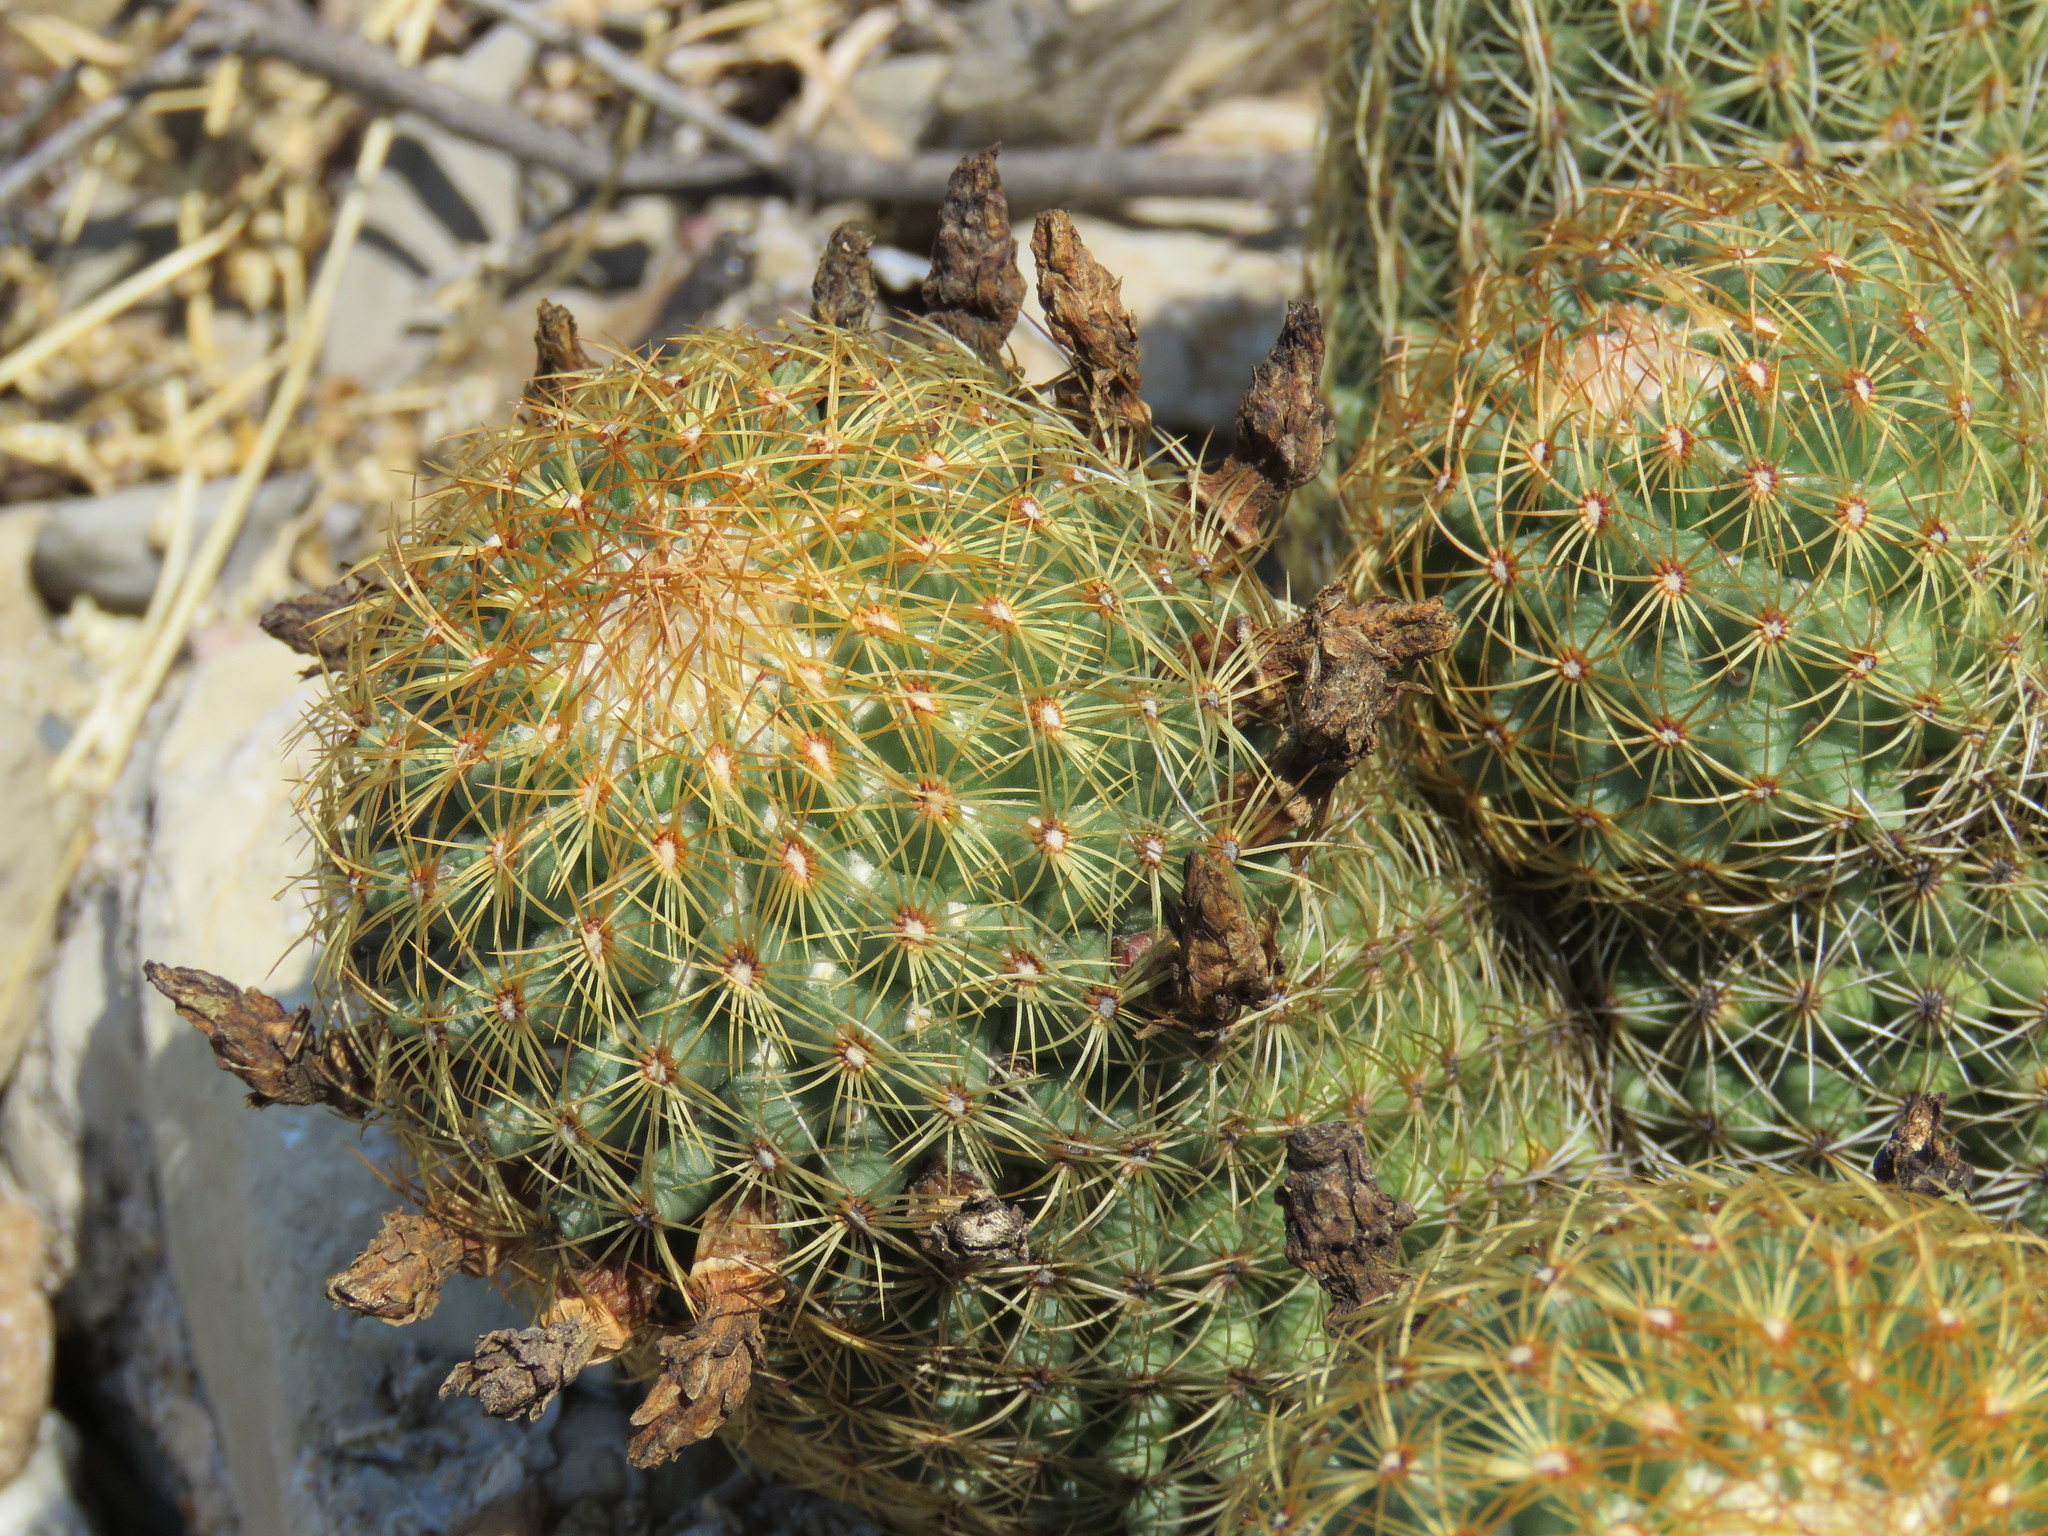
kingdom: Plantae
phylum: Tracheophyta
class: Magnoliopsida
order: Caryophyllales
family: Cactaceae
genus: Coryphantha
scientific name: Coryphantha erecta
